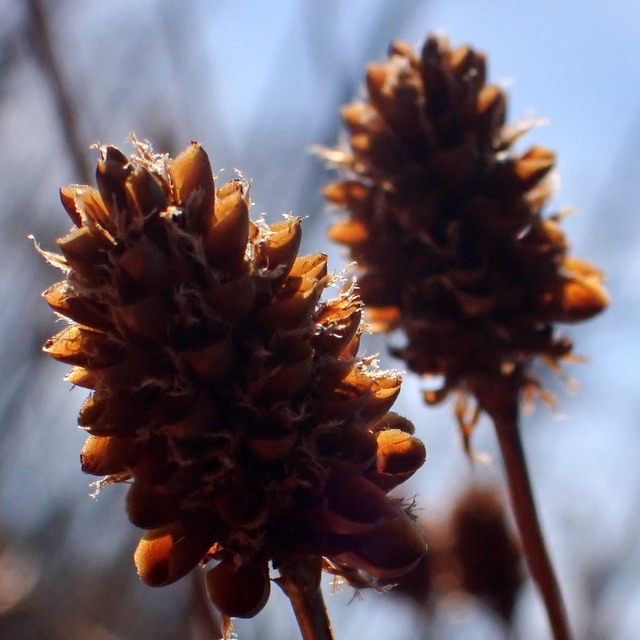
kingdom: Plantae
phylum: Tracheophyta
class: Liliopsida
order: Poales
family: Xyridaceae
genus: Xyris
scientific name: Xyris fimbriata
